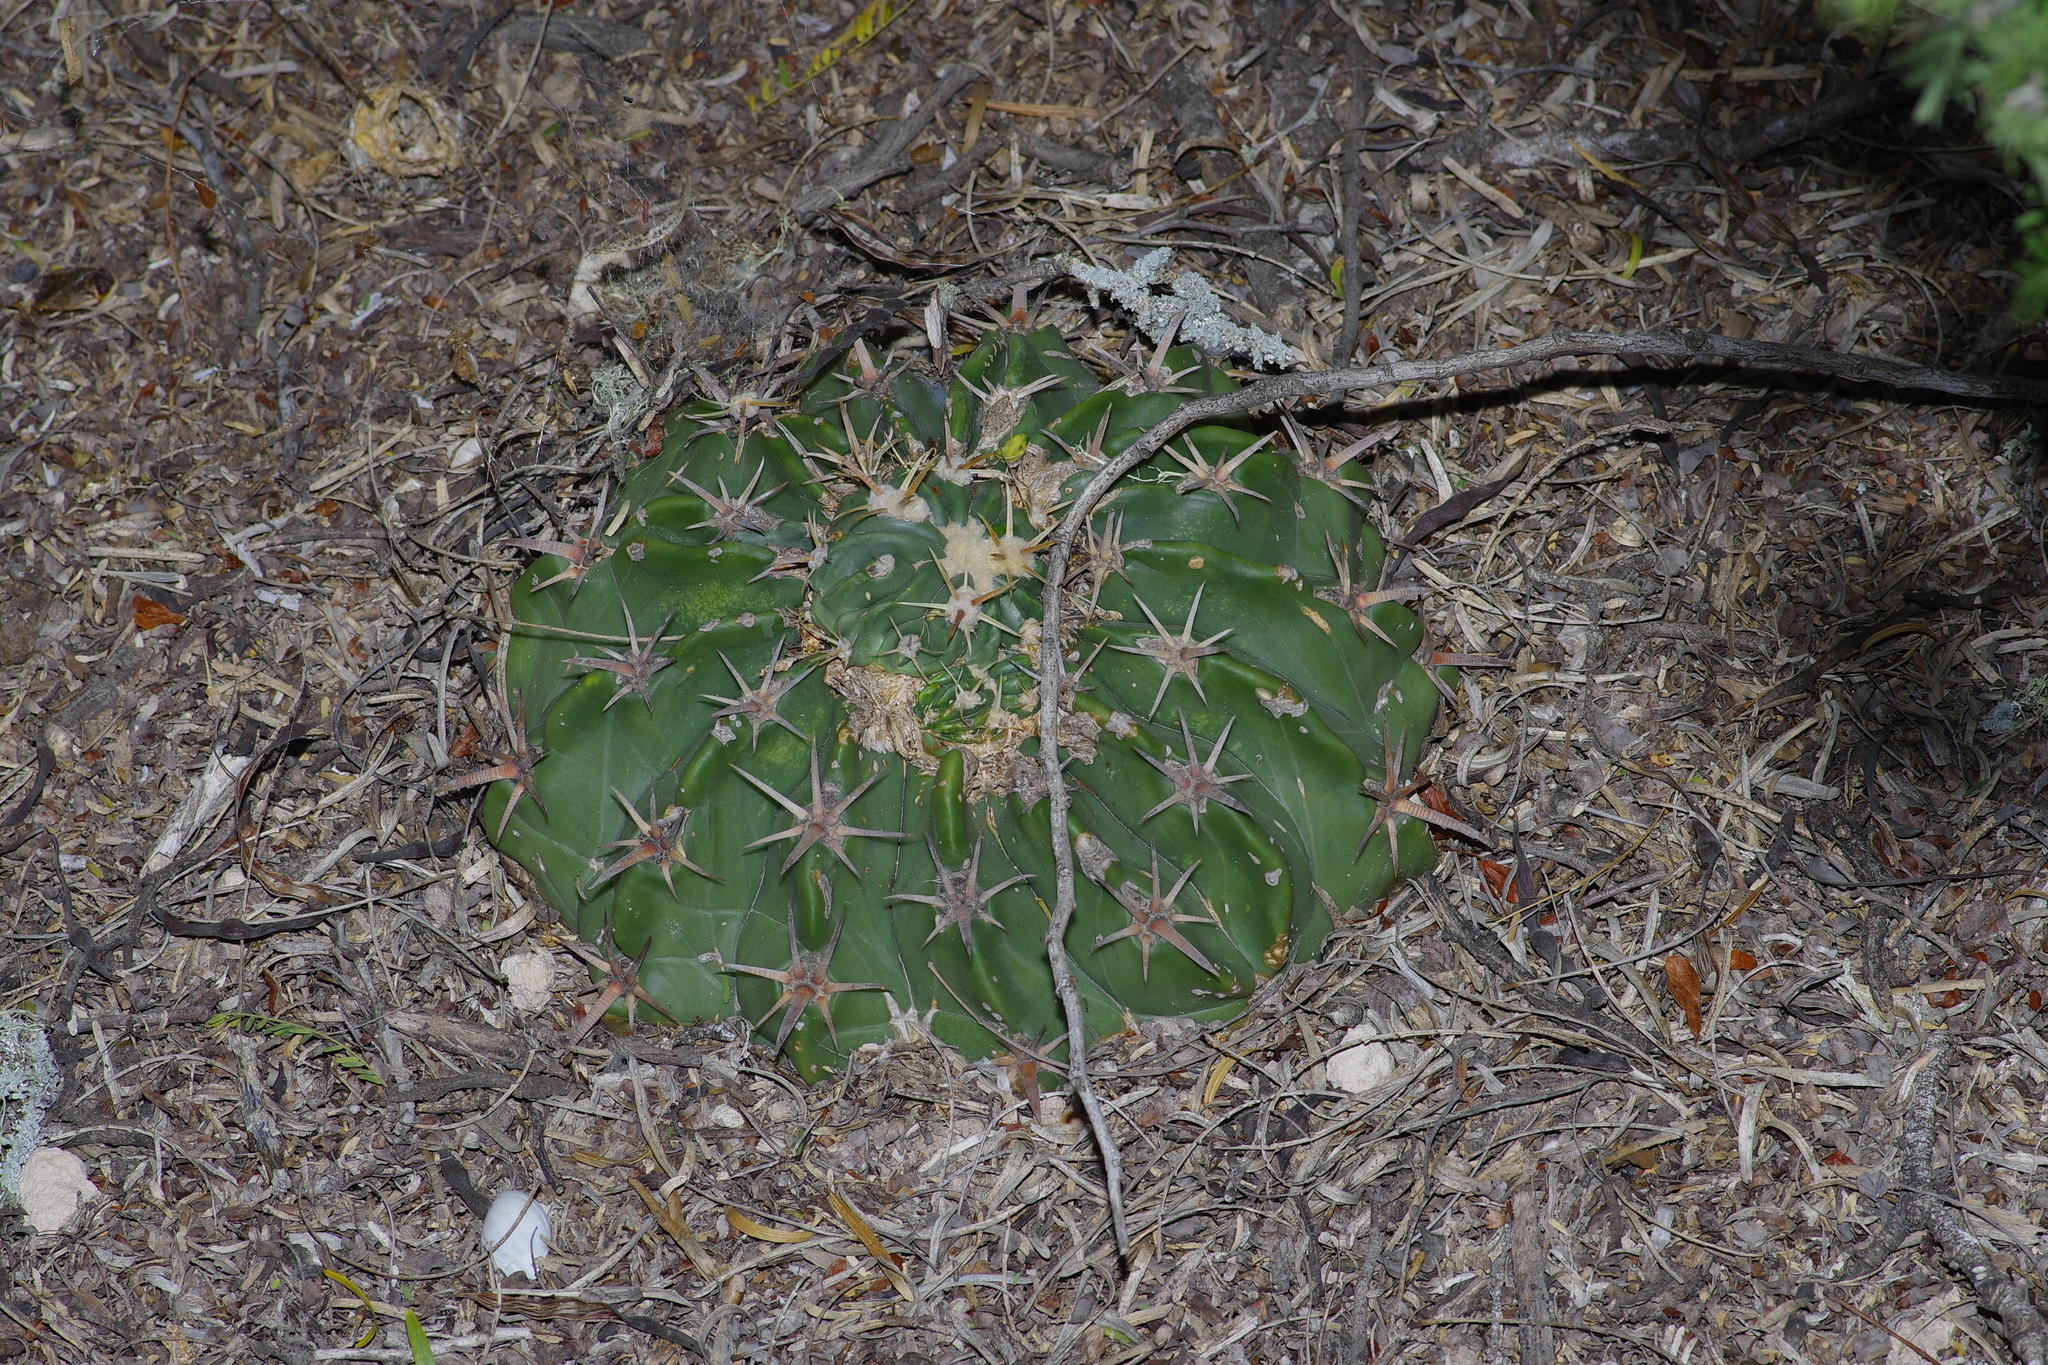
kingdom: Plantae
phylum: Tracheophyta
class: Magnoliopsida
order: Caryophyllales
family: Cactaceae
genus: Echinocactus
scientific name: Echinocactus texensis
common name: Devil's pincushion
